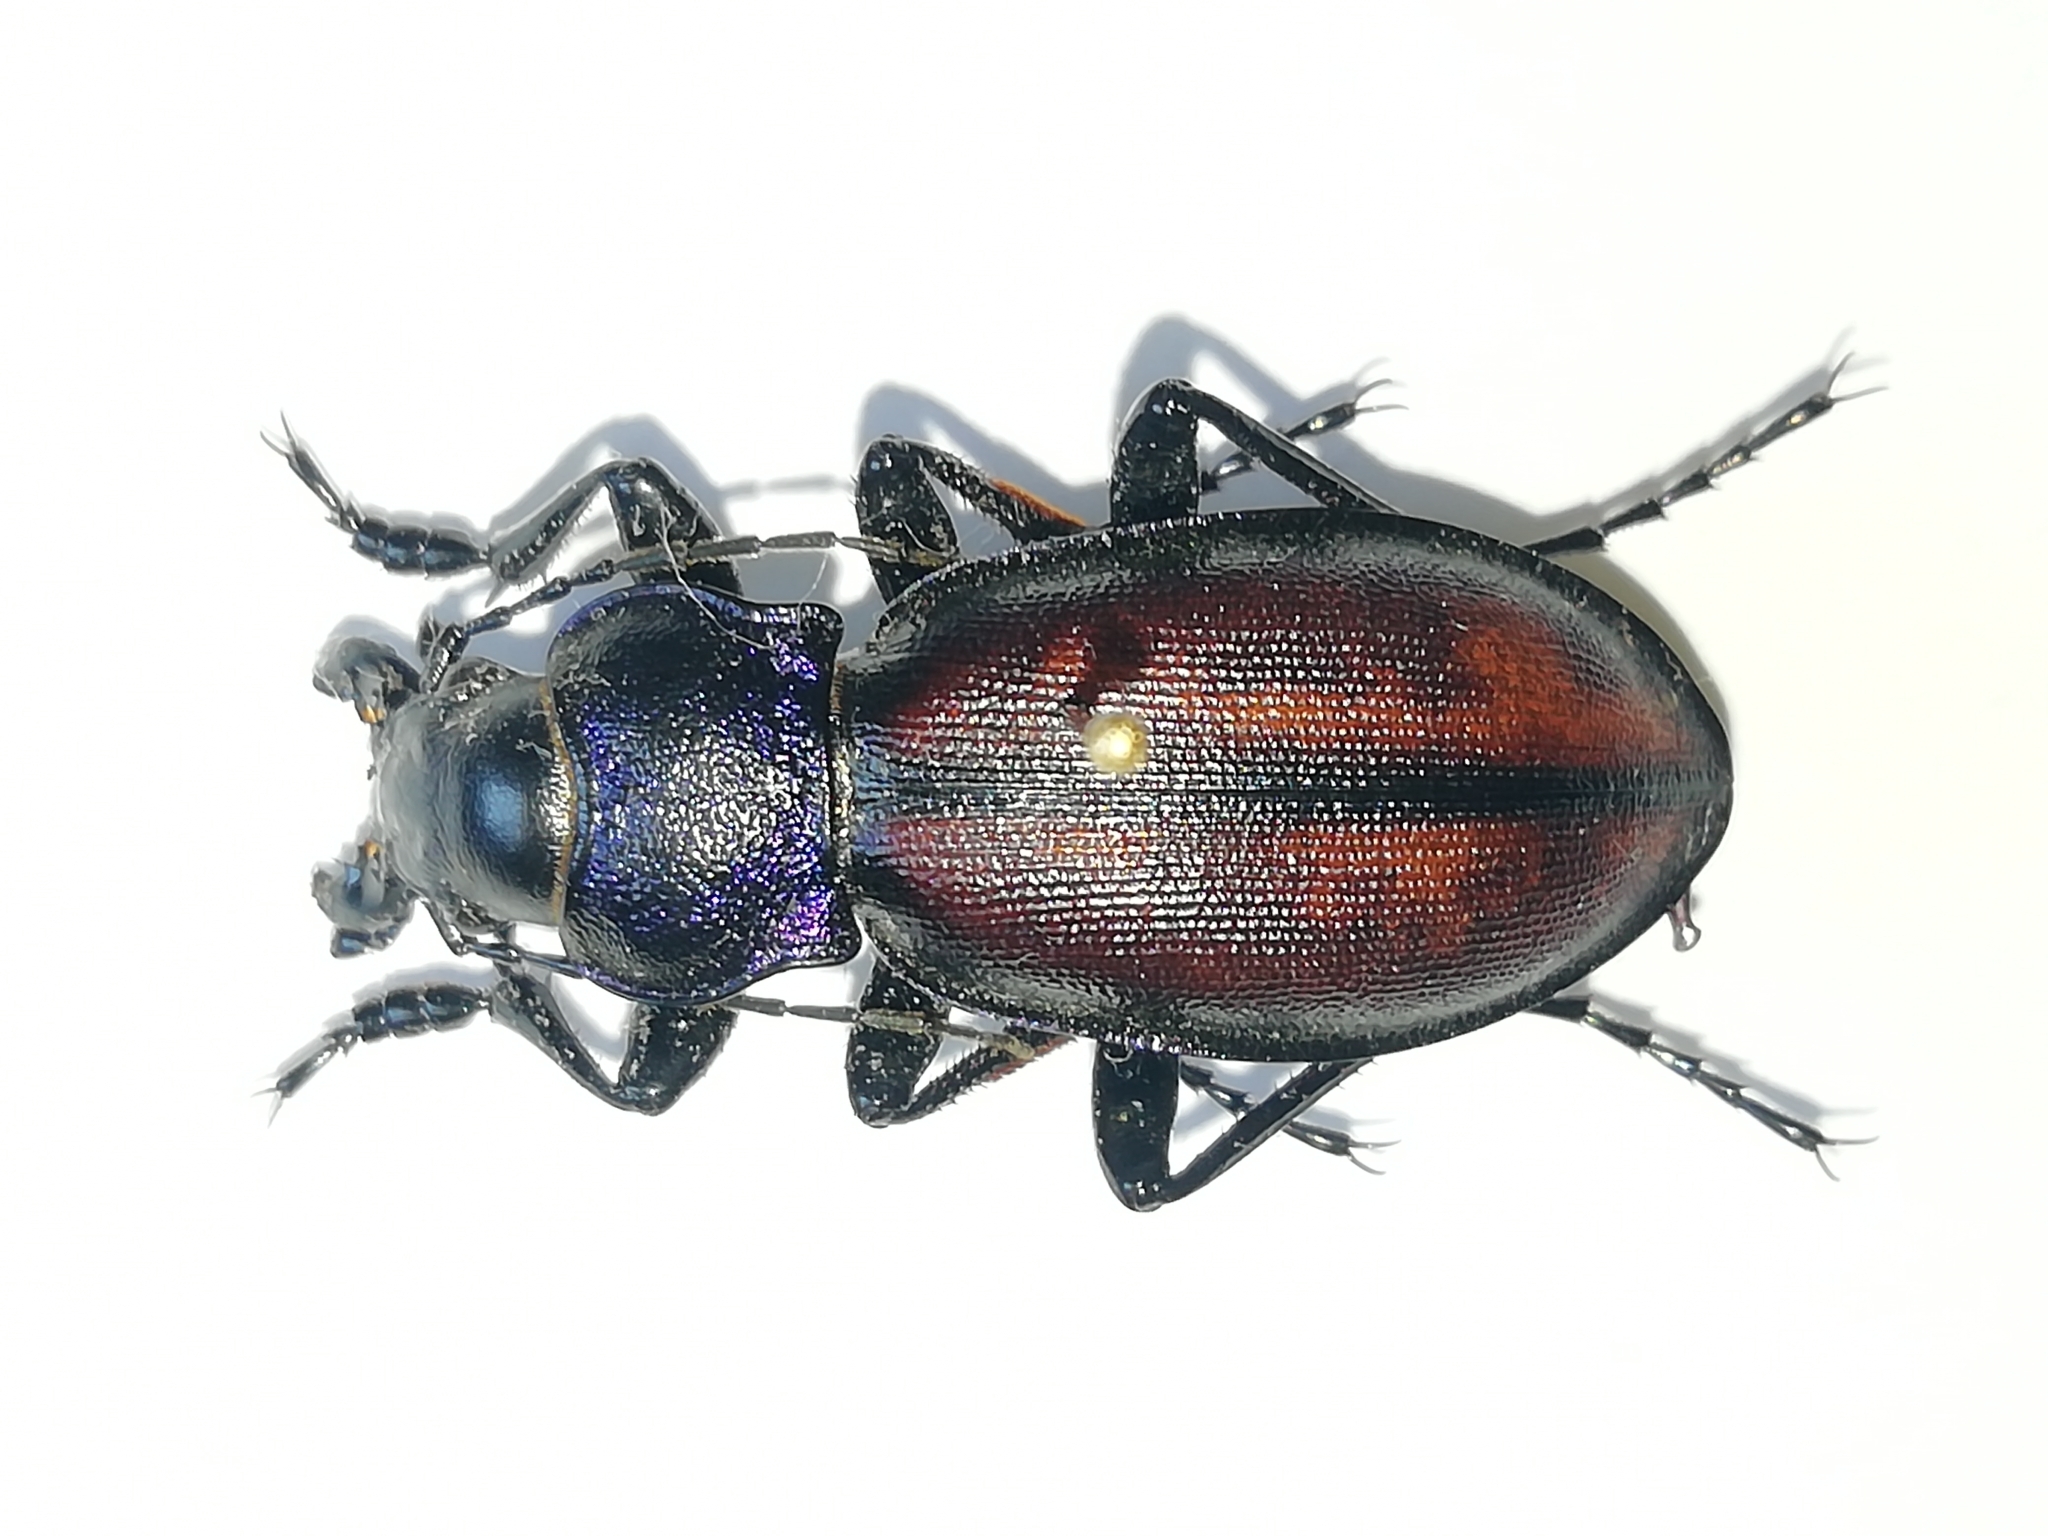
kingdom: Animalia
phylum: Arthropoda
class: Insecta
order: Coleoptera
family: Carabidae
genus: Carabus
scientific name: Carabus schoenherri
